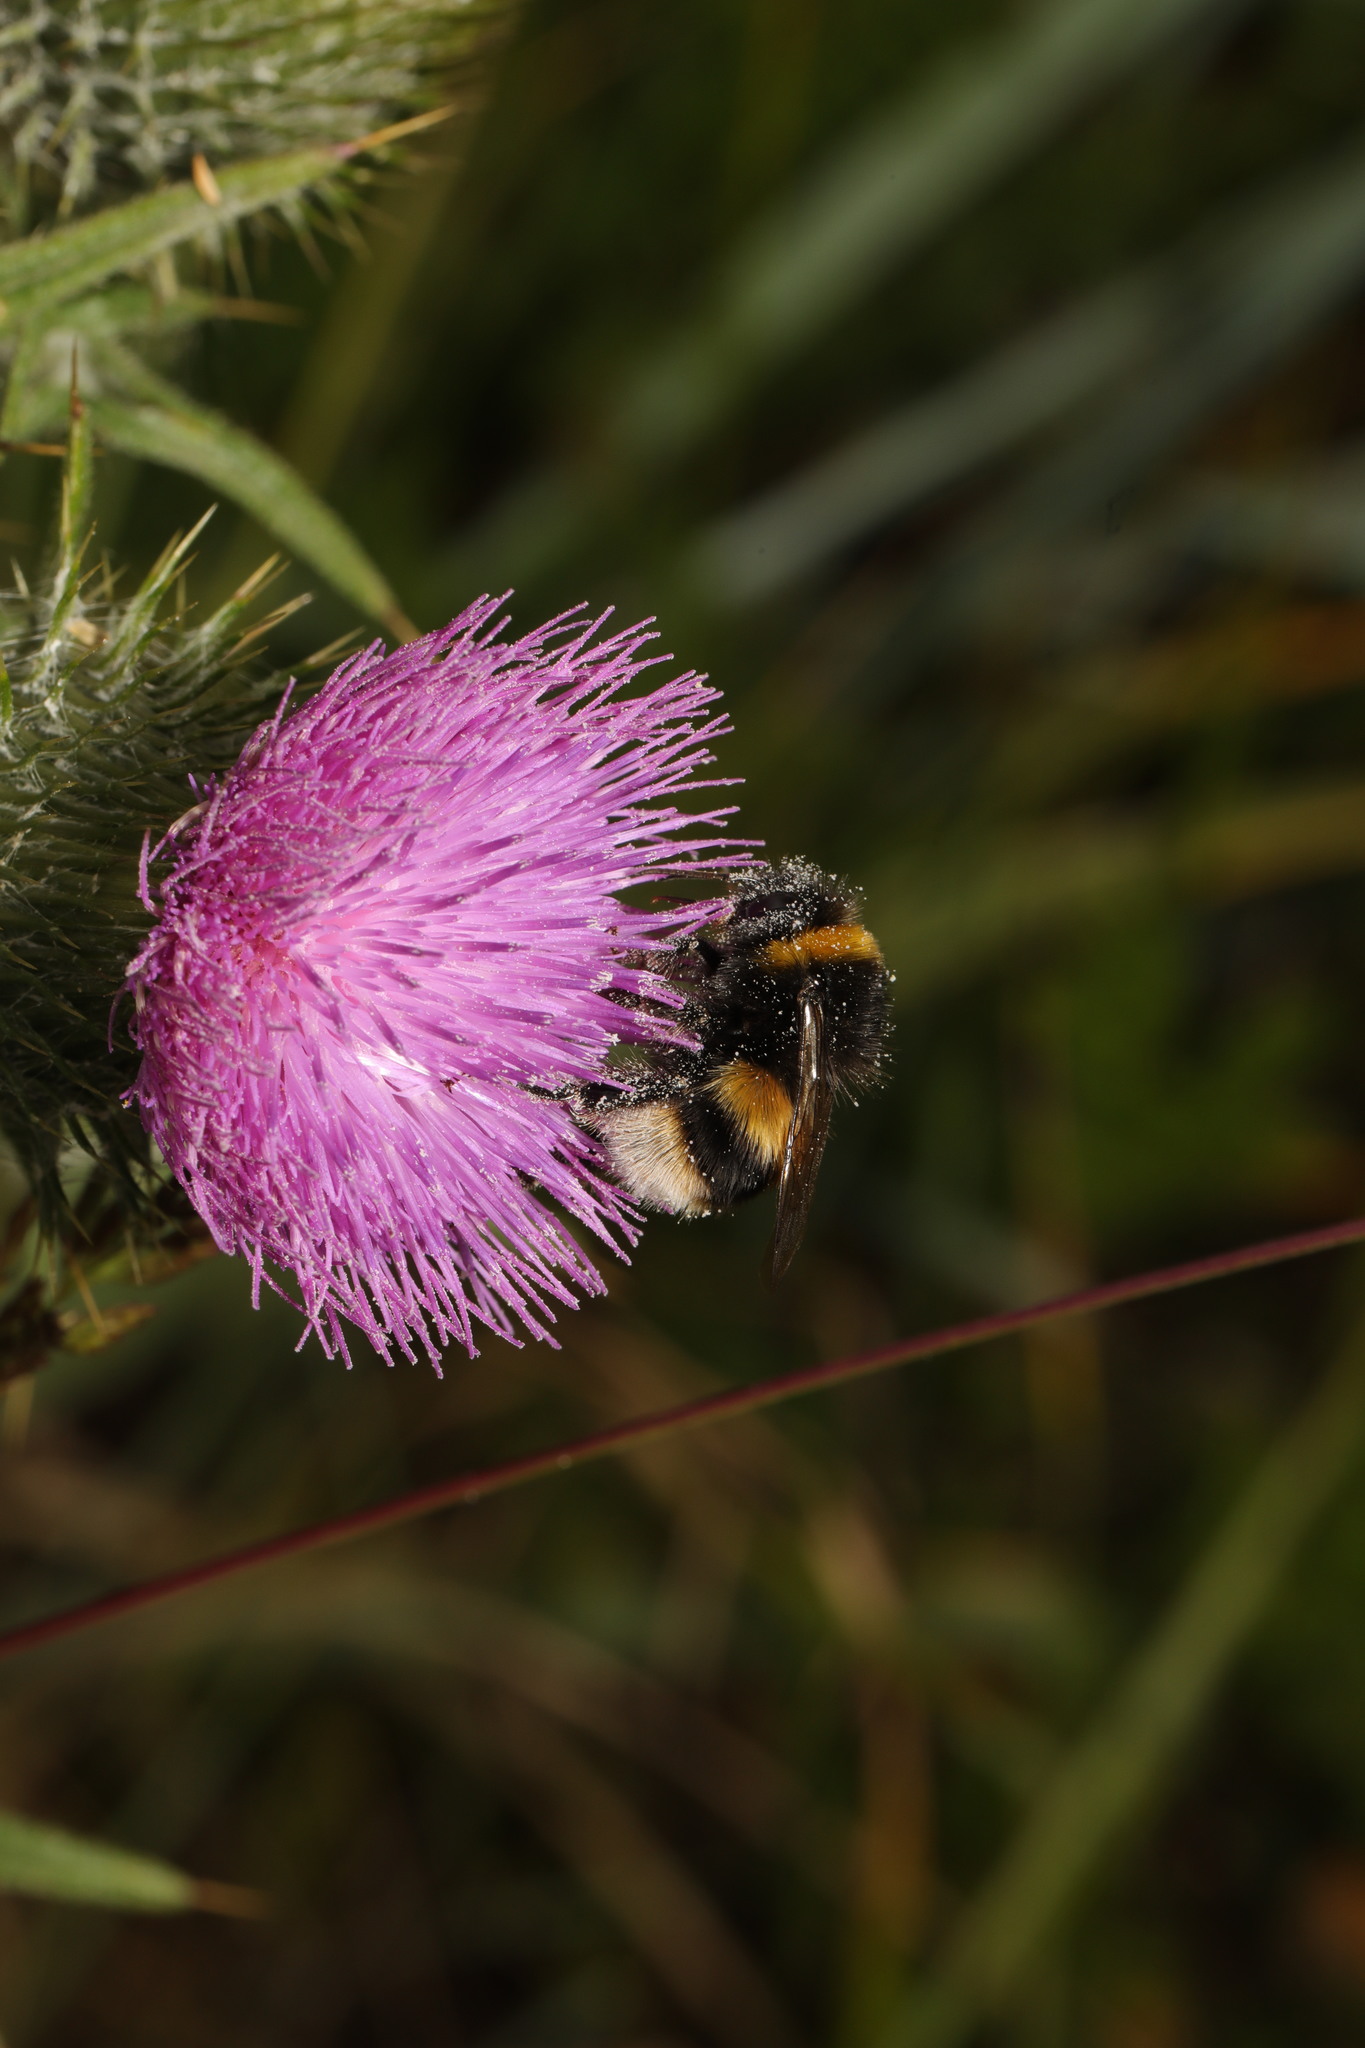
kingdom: Animalia
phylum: Arthropoda
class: Insecta
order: Hymenoptera
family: Apidae
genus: Bombus
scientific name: Bombus terrestris
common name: Buff-tailed bumblebee
